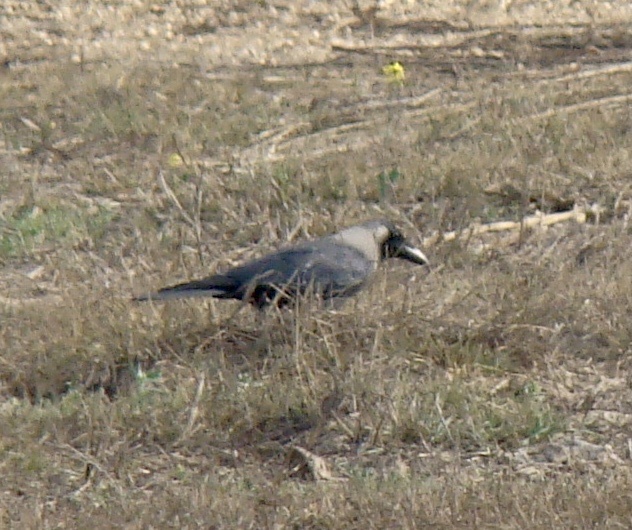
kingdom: Animalia
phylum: Chordata
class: Aves
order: Passeriformes
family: Corvidae
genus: Corvus
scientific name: Corvus splendens
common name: House crow
